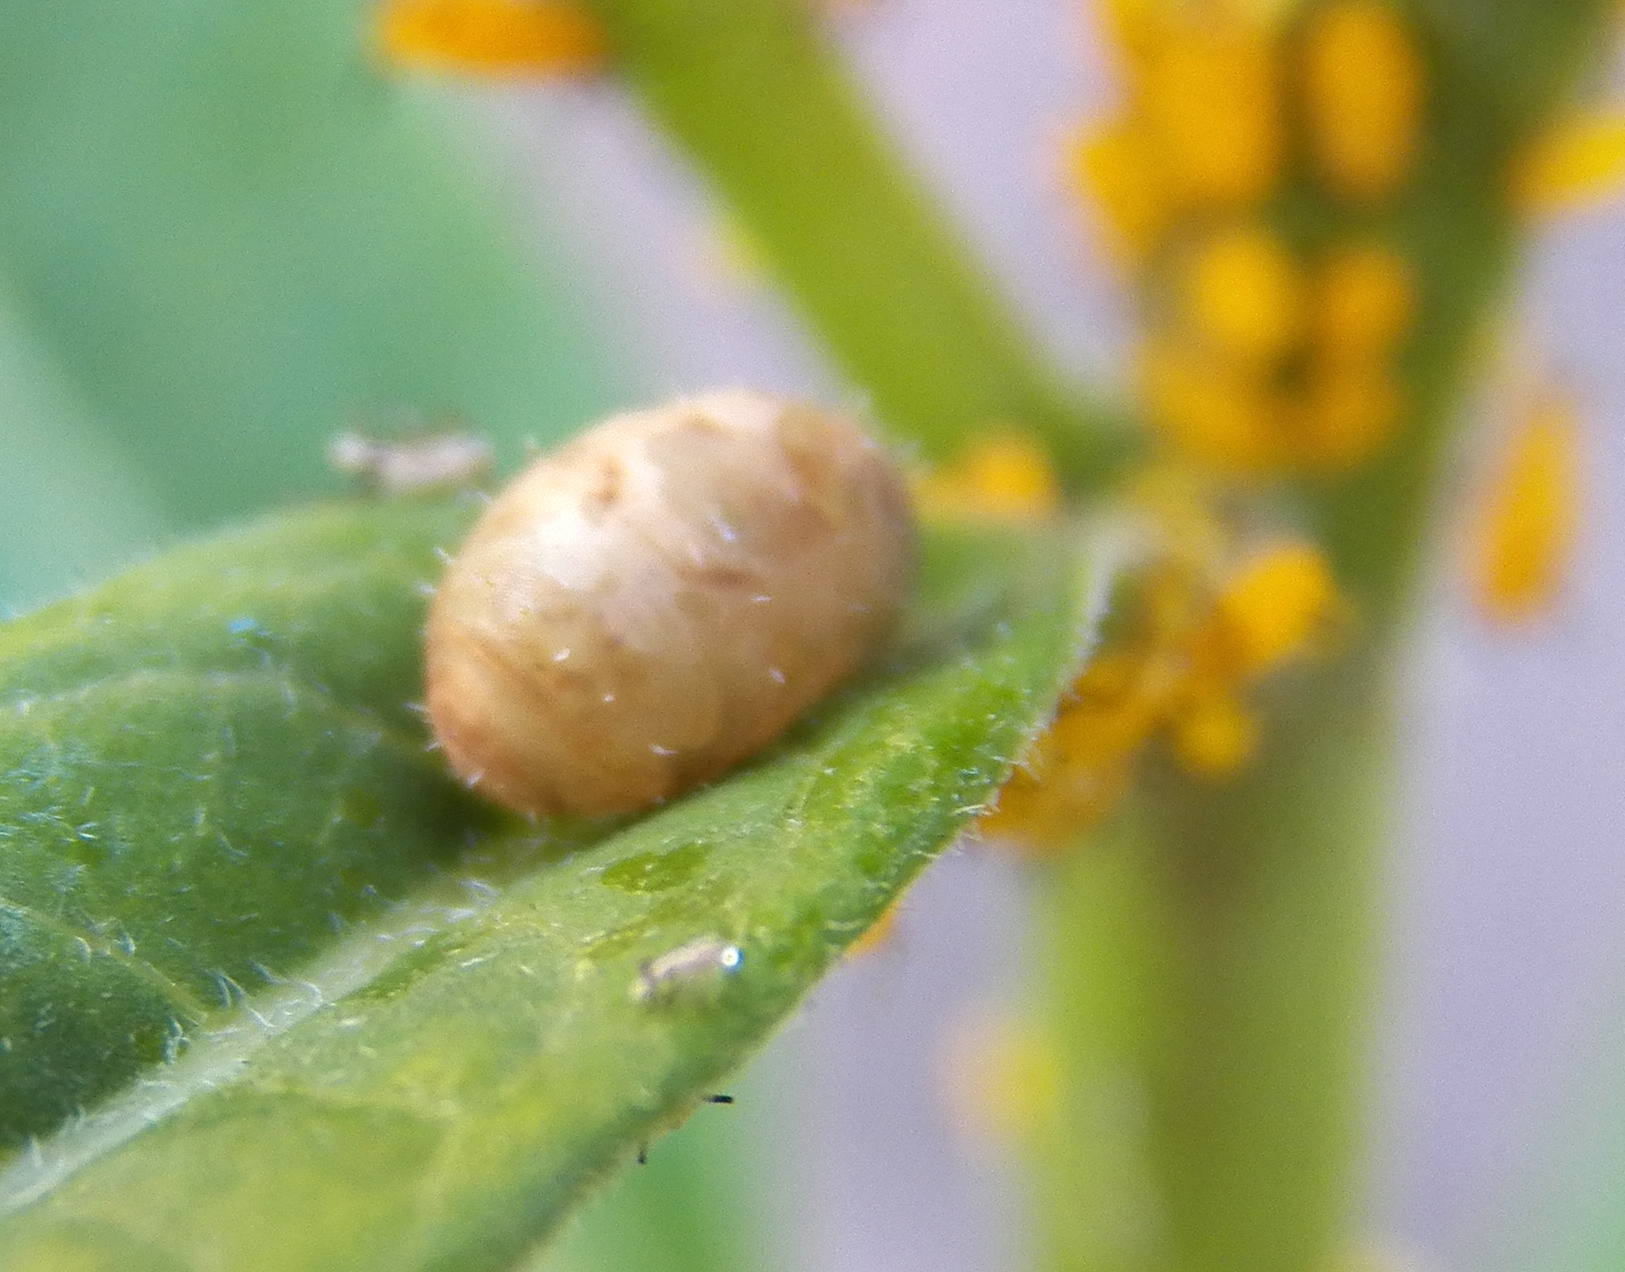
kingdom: Animalia
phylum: Arthropoda
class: Insecta
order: Diptera
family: Syrphidae
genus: Dioprosopa
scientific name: Dioprosopa clavatus
